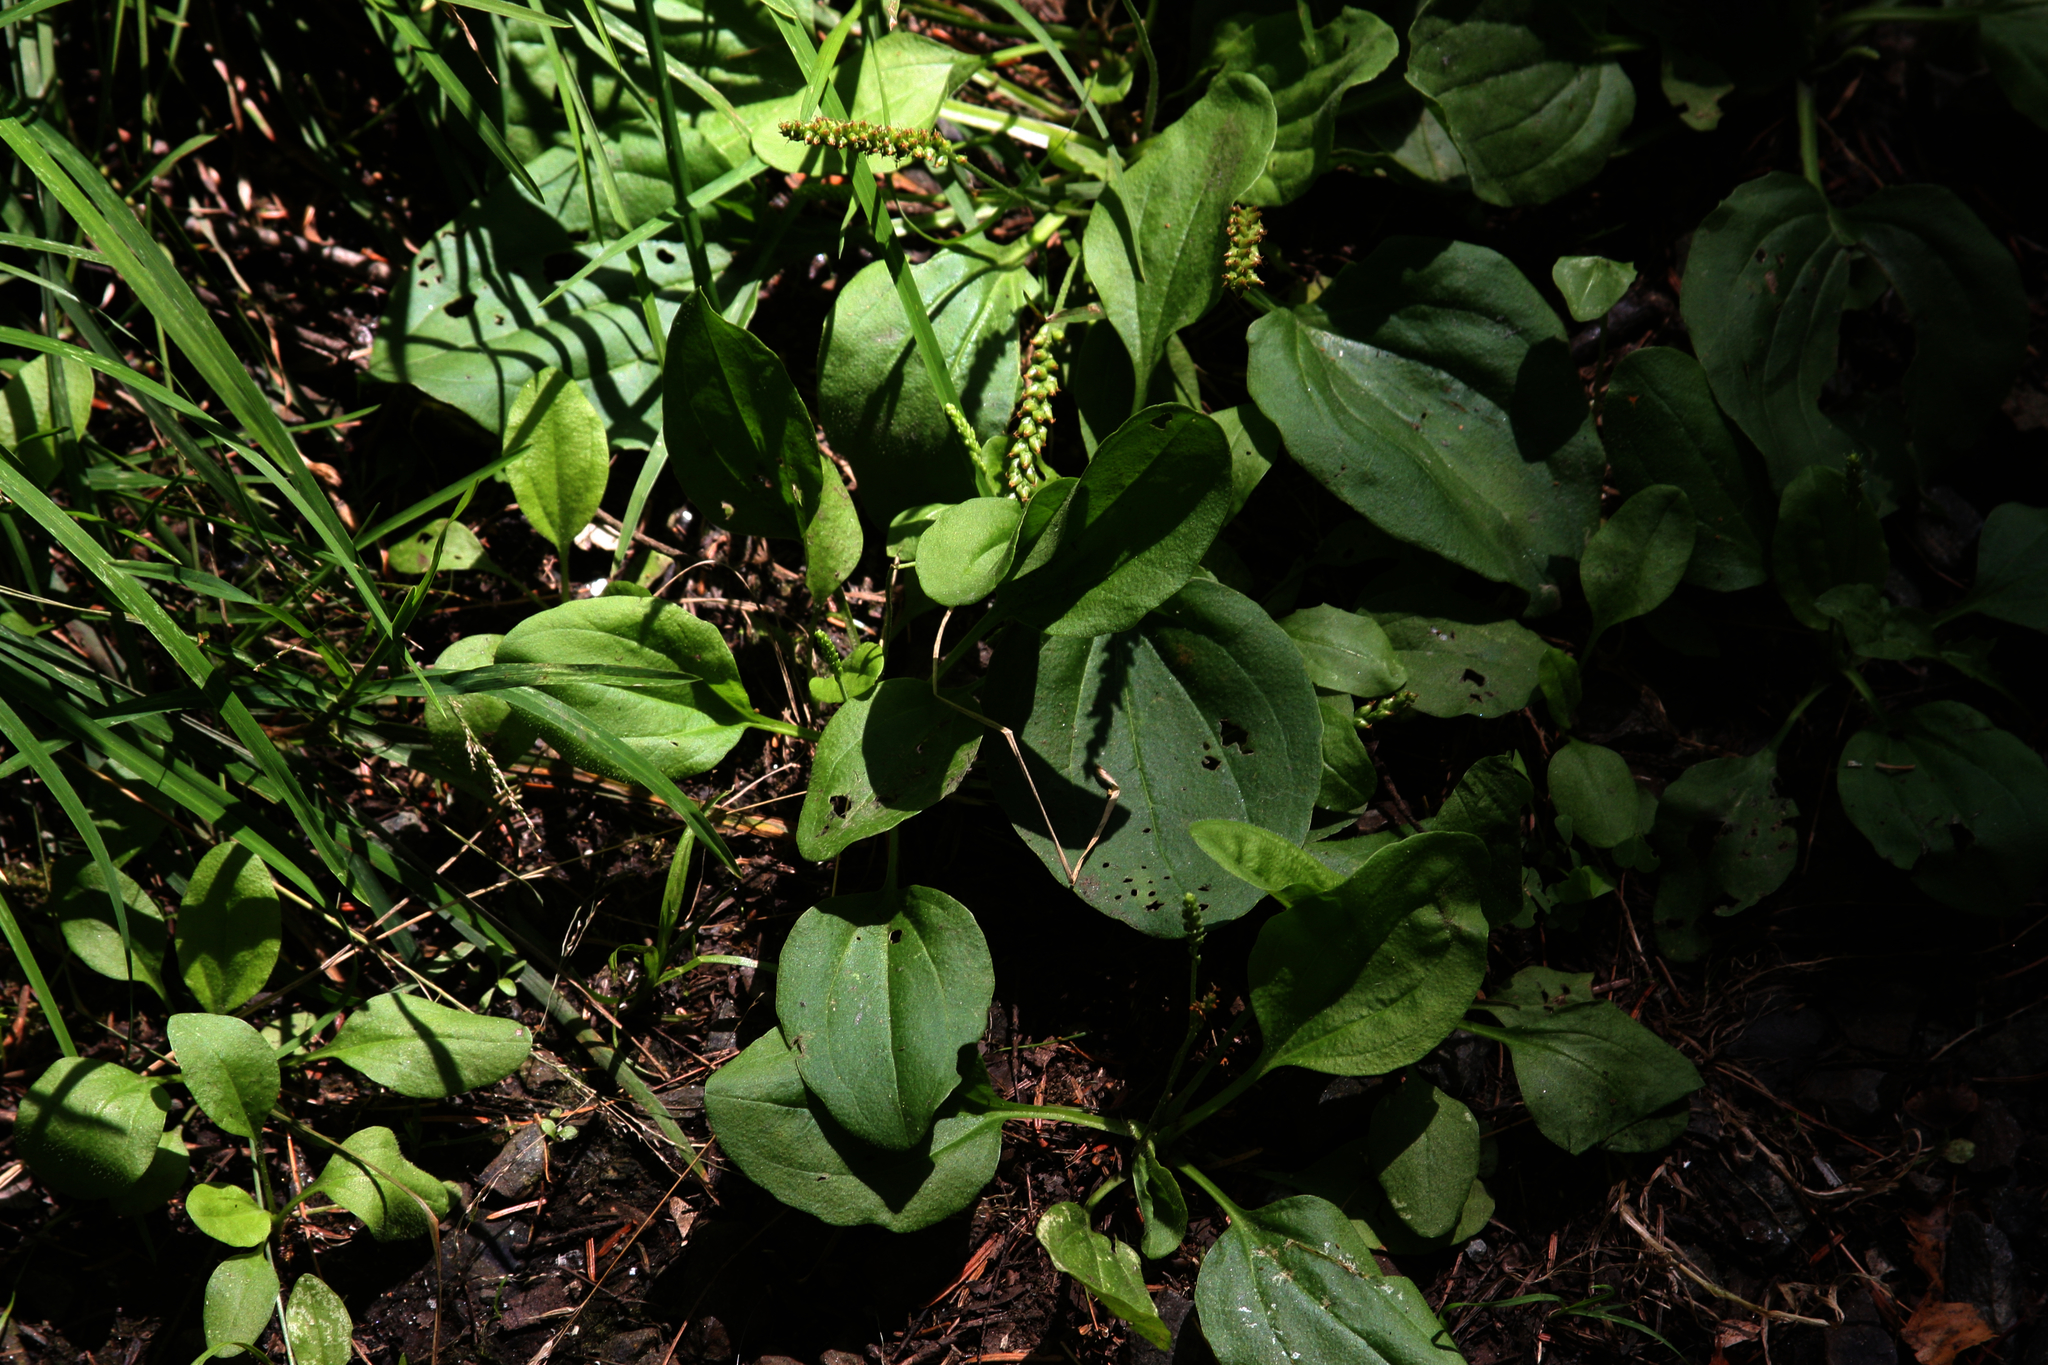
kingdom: Plantae
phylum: Tracheophyta
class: Magnoliopsida
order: Lamiales
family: Plantaginaceae
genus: Plantago
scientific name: Plantago major
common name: Common plantain
